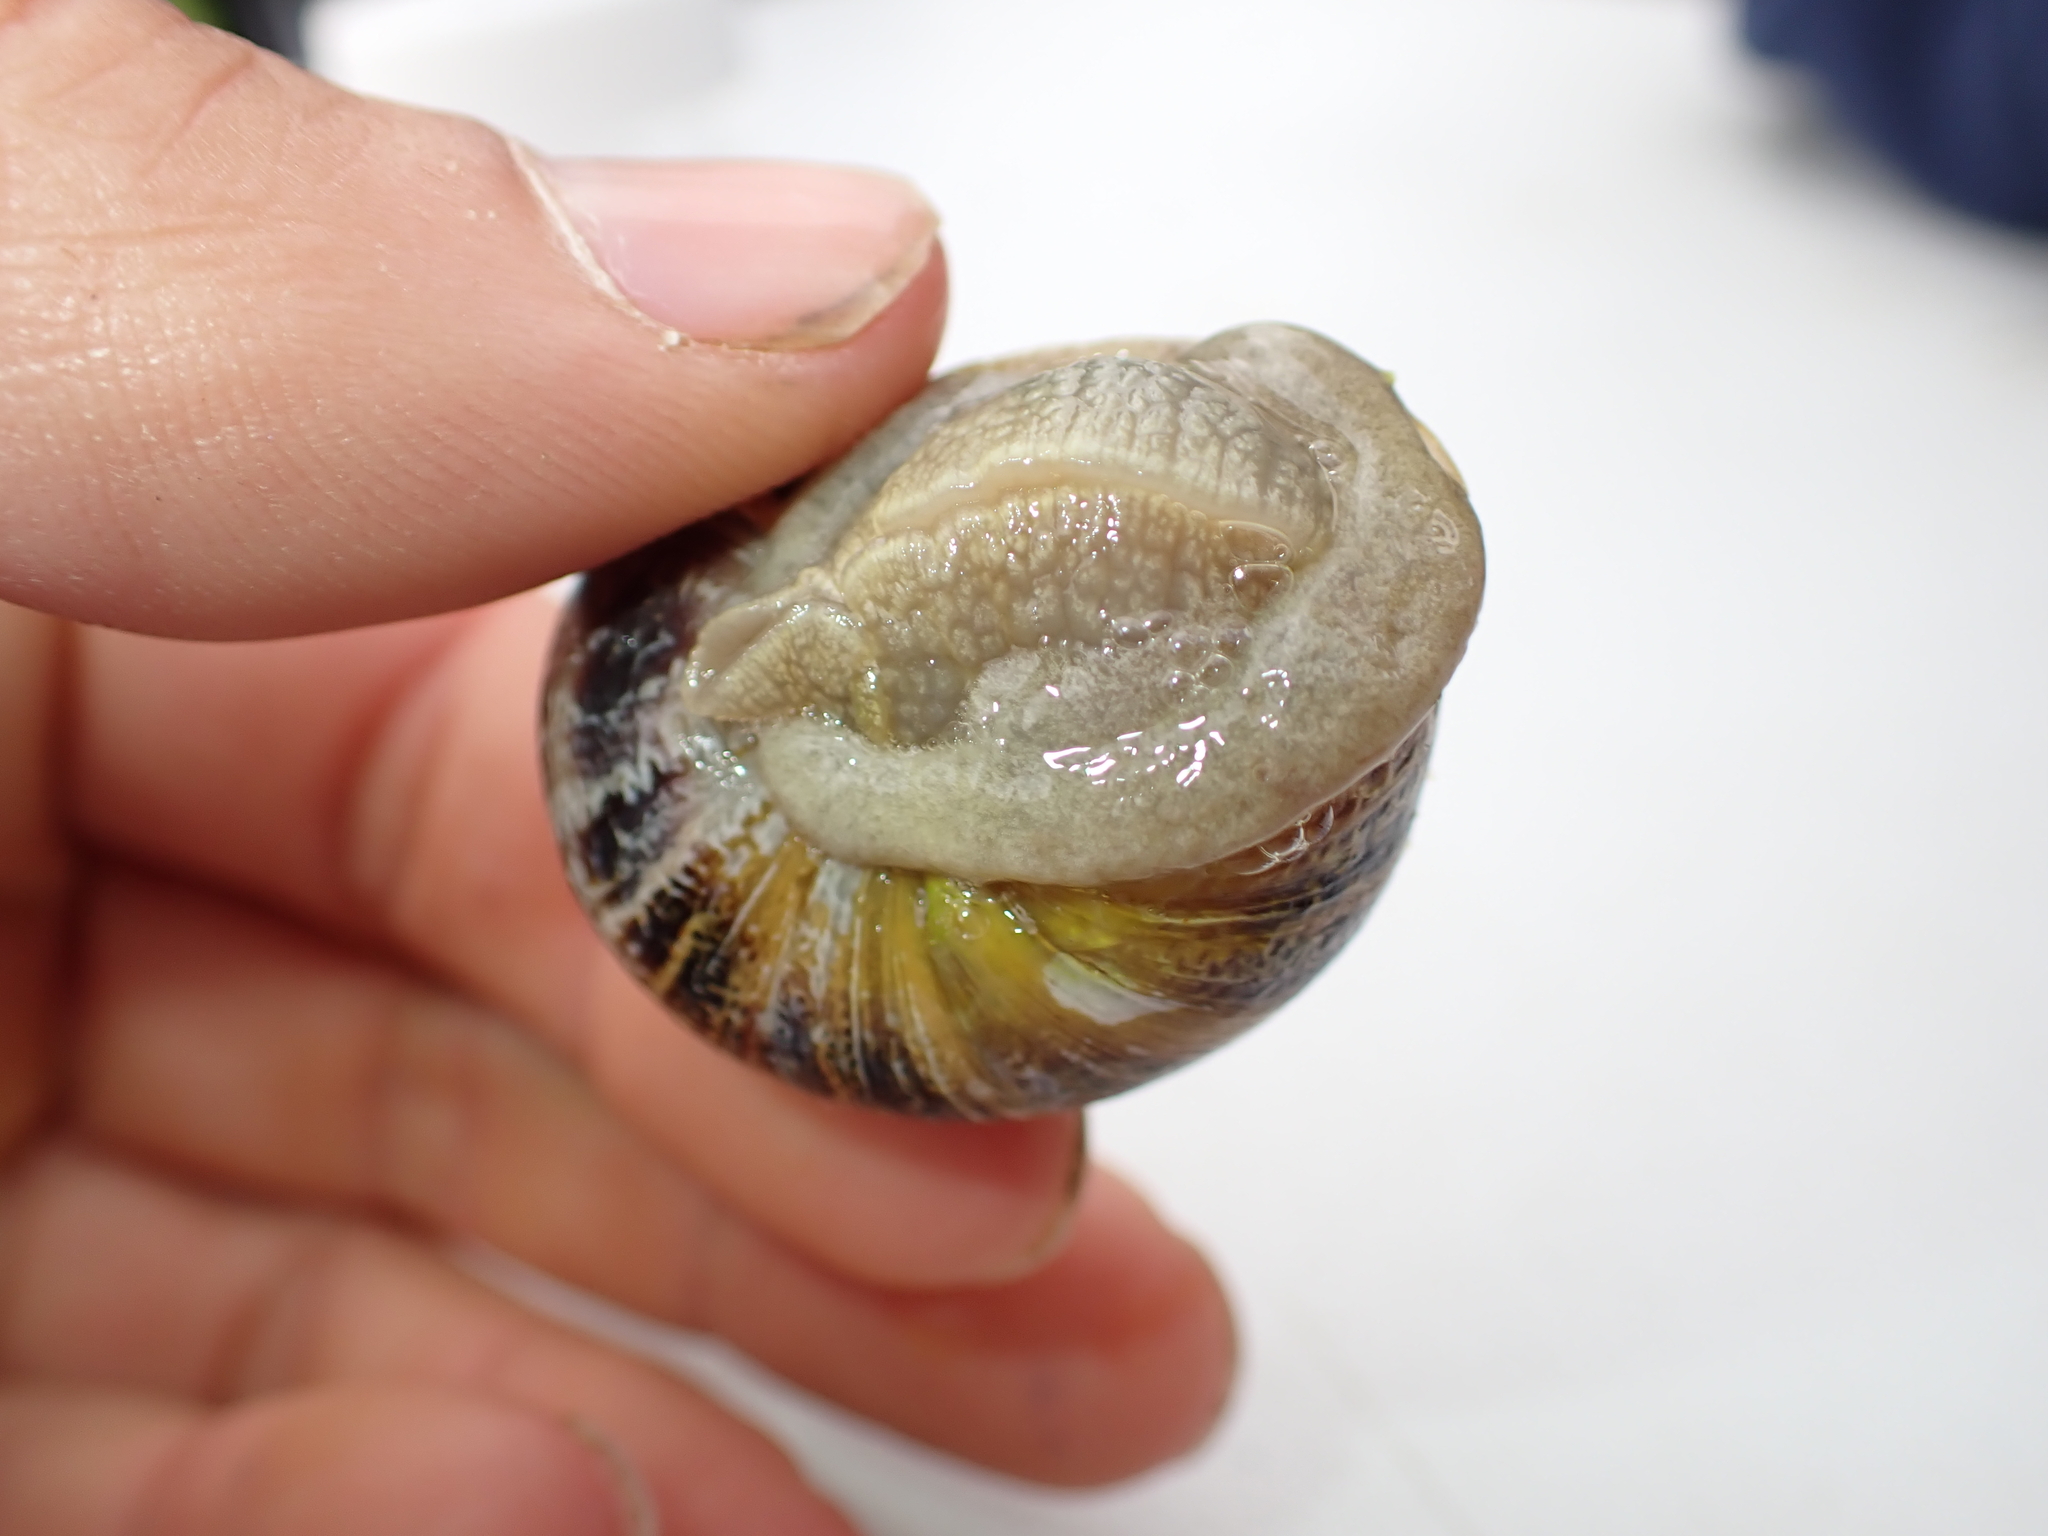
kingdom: Animalia
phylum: Mollusca
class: Gastropoda
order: Stylommatophora
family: Helicidae
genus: Cornu
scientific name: Cornu aspersum
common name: Brown garden snail
